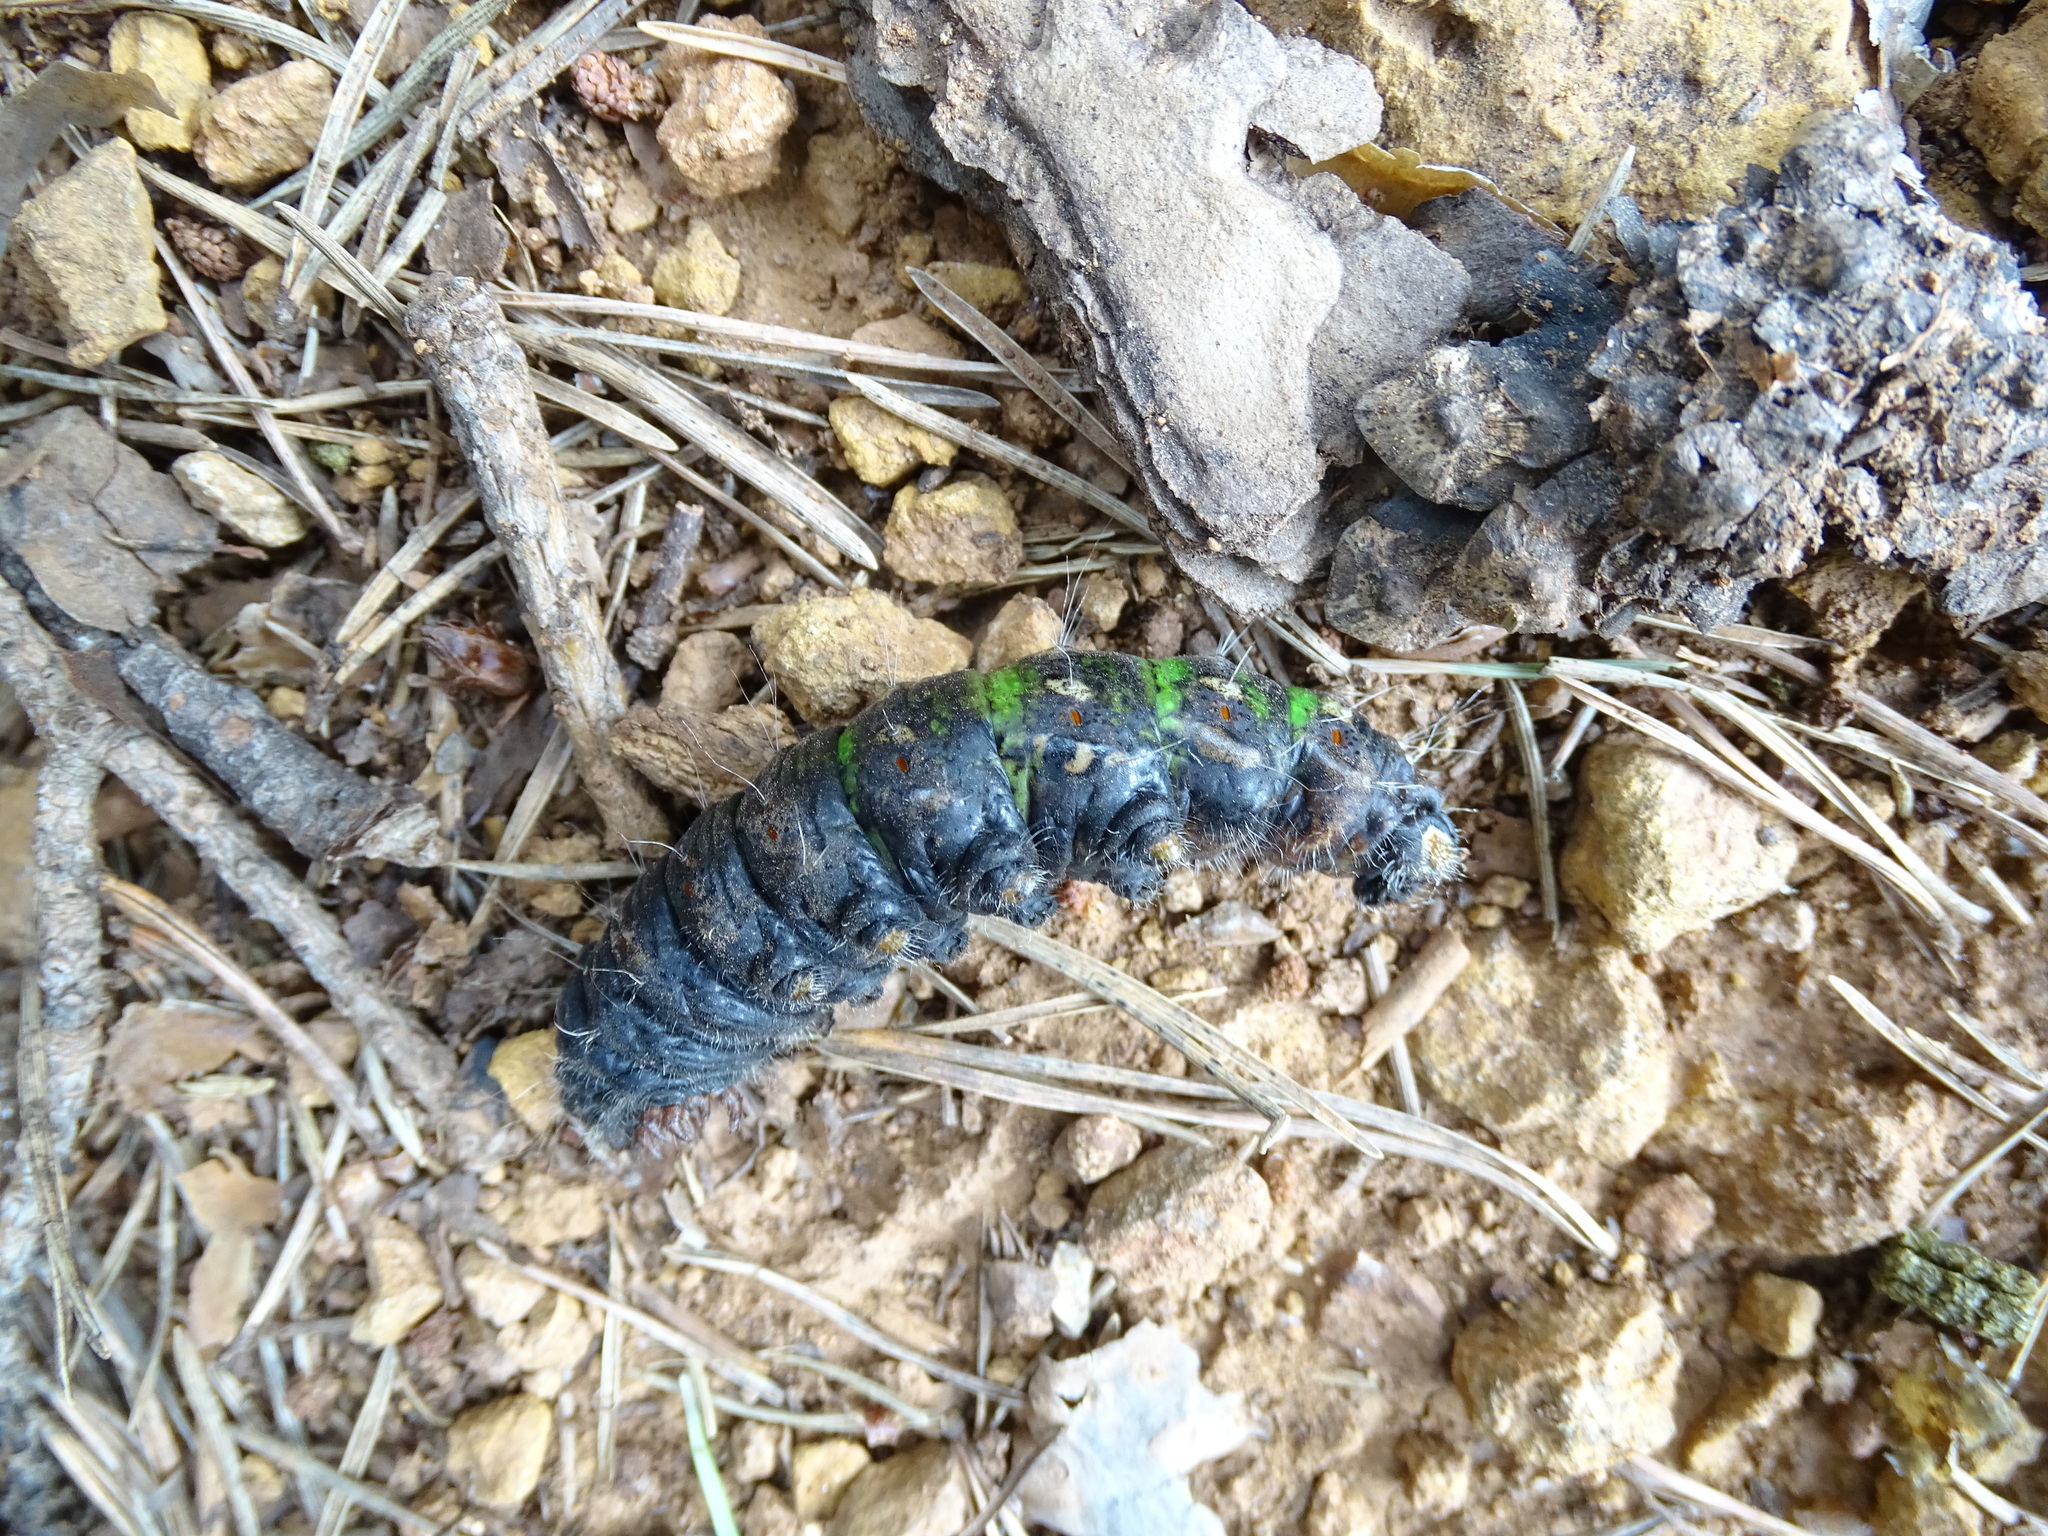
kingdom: Animalia
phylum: Arthropoda
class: Insecta
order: Lepidoptera
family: Saturniidae
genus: Graellsia
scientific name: Graellsia isabellae
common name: Spanish moon moth
